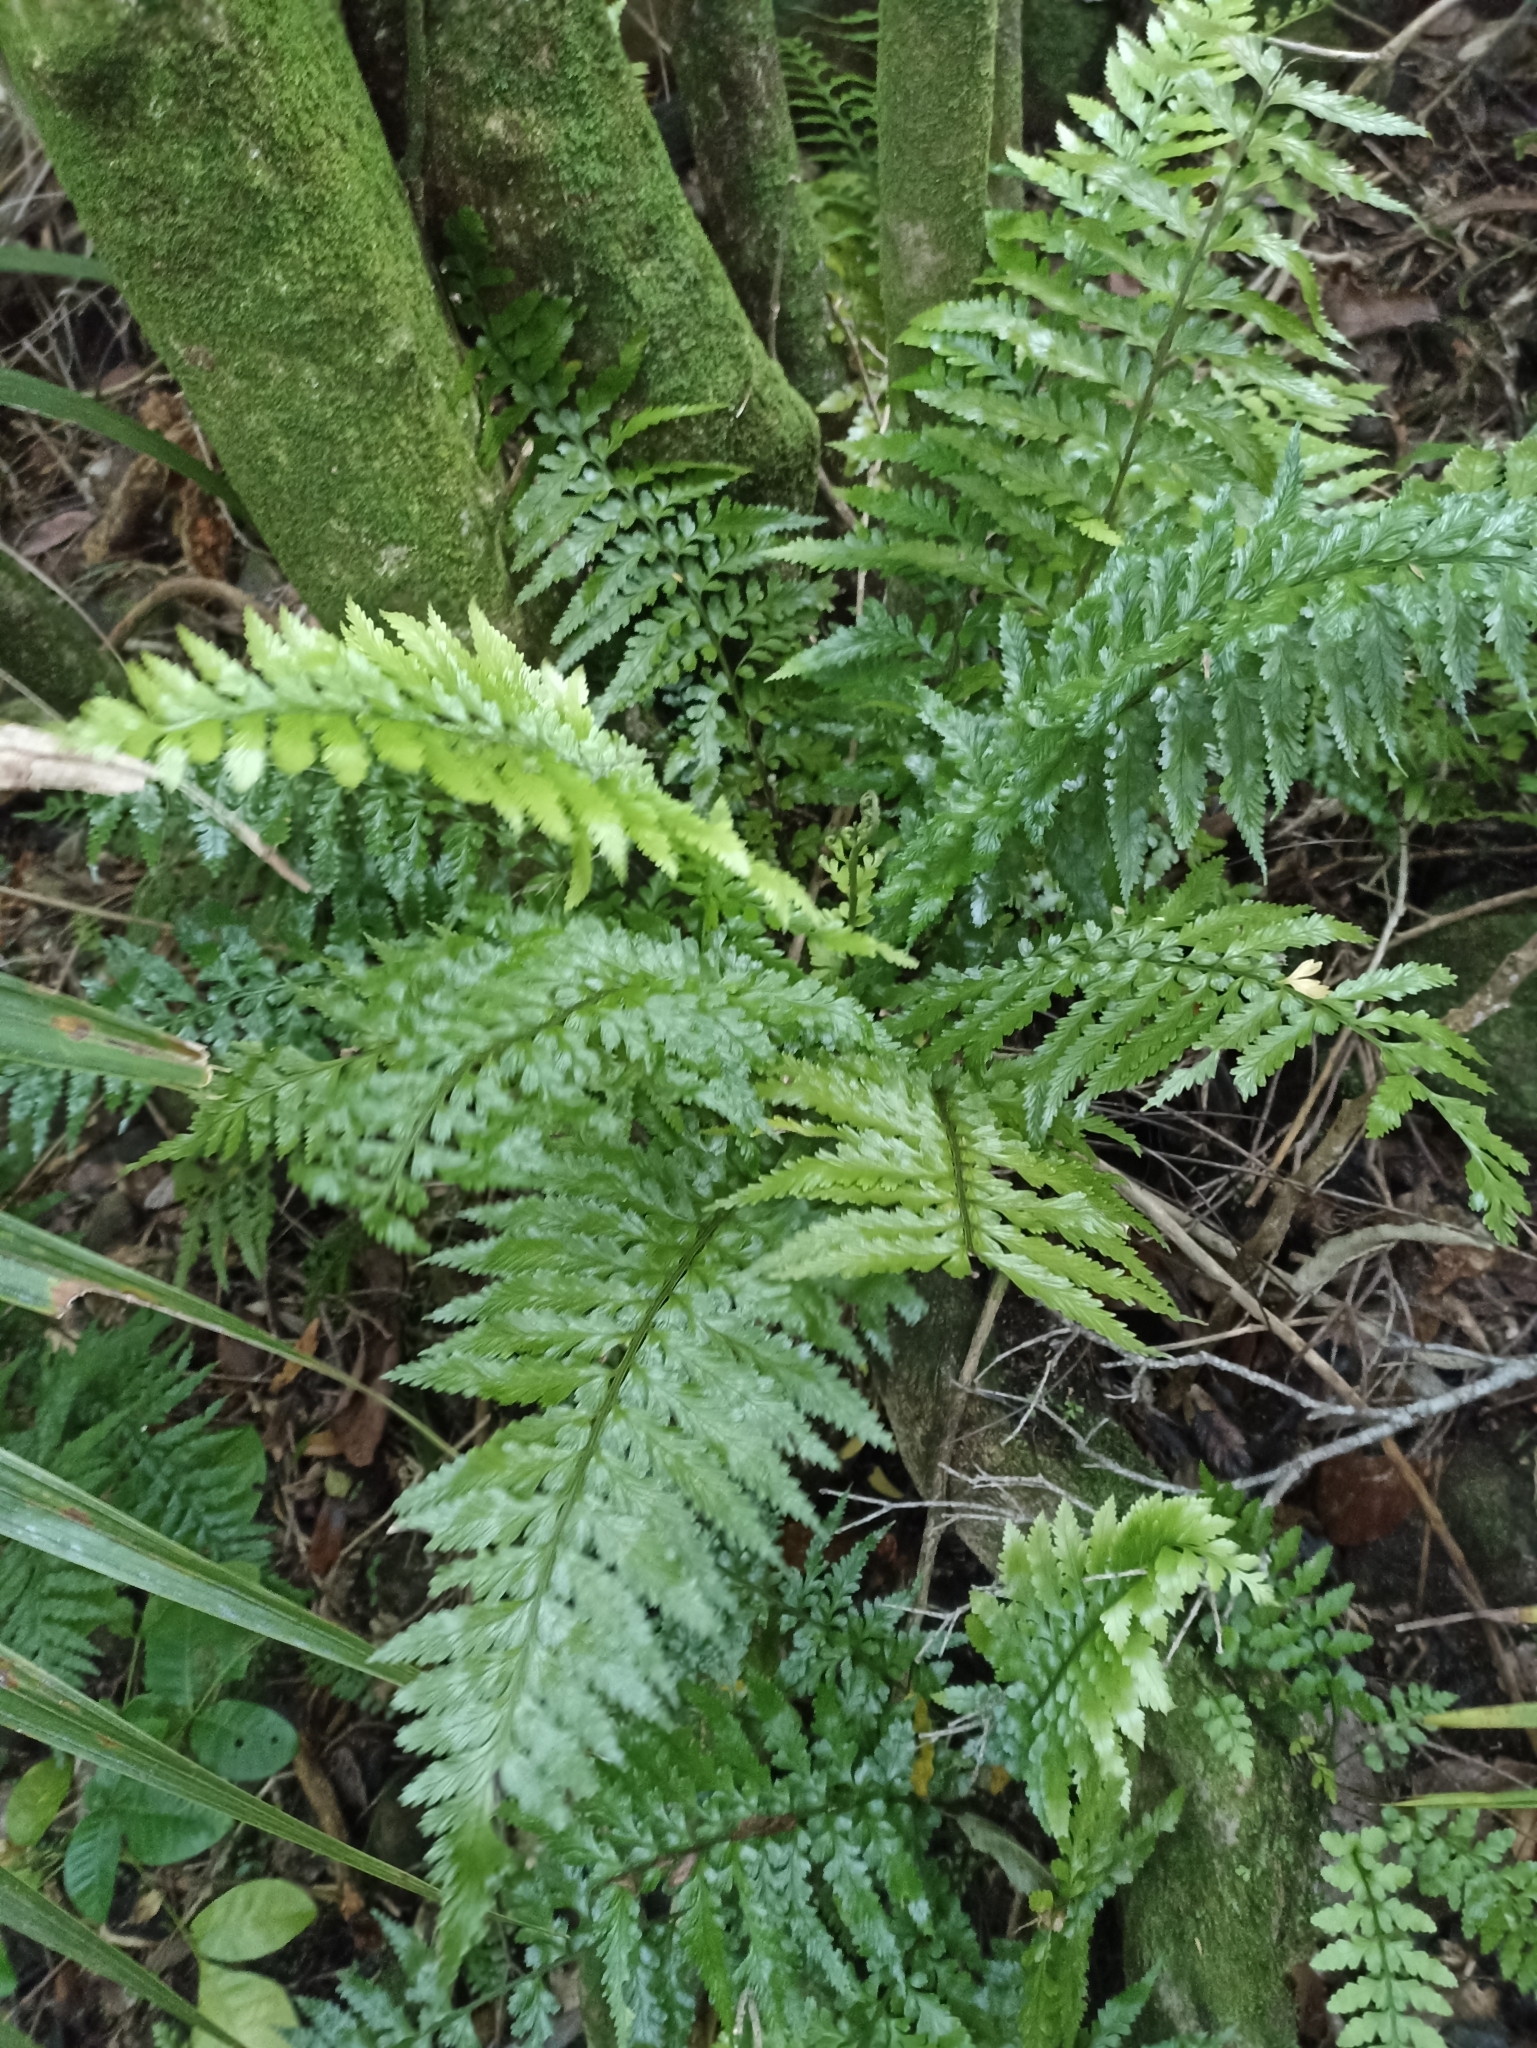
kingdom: Plantae
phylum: Tracheophyta
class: Polypodiopsida
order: Polypodiales
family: Aspleniaceae
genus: Asplenium
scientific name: Asplenium lamprophyllum
